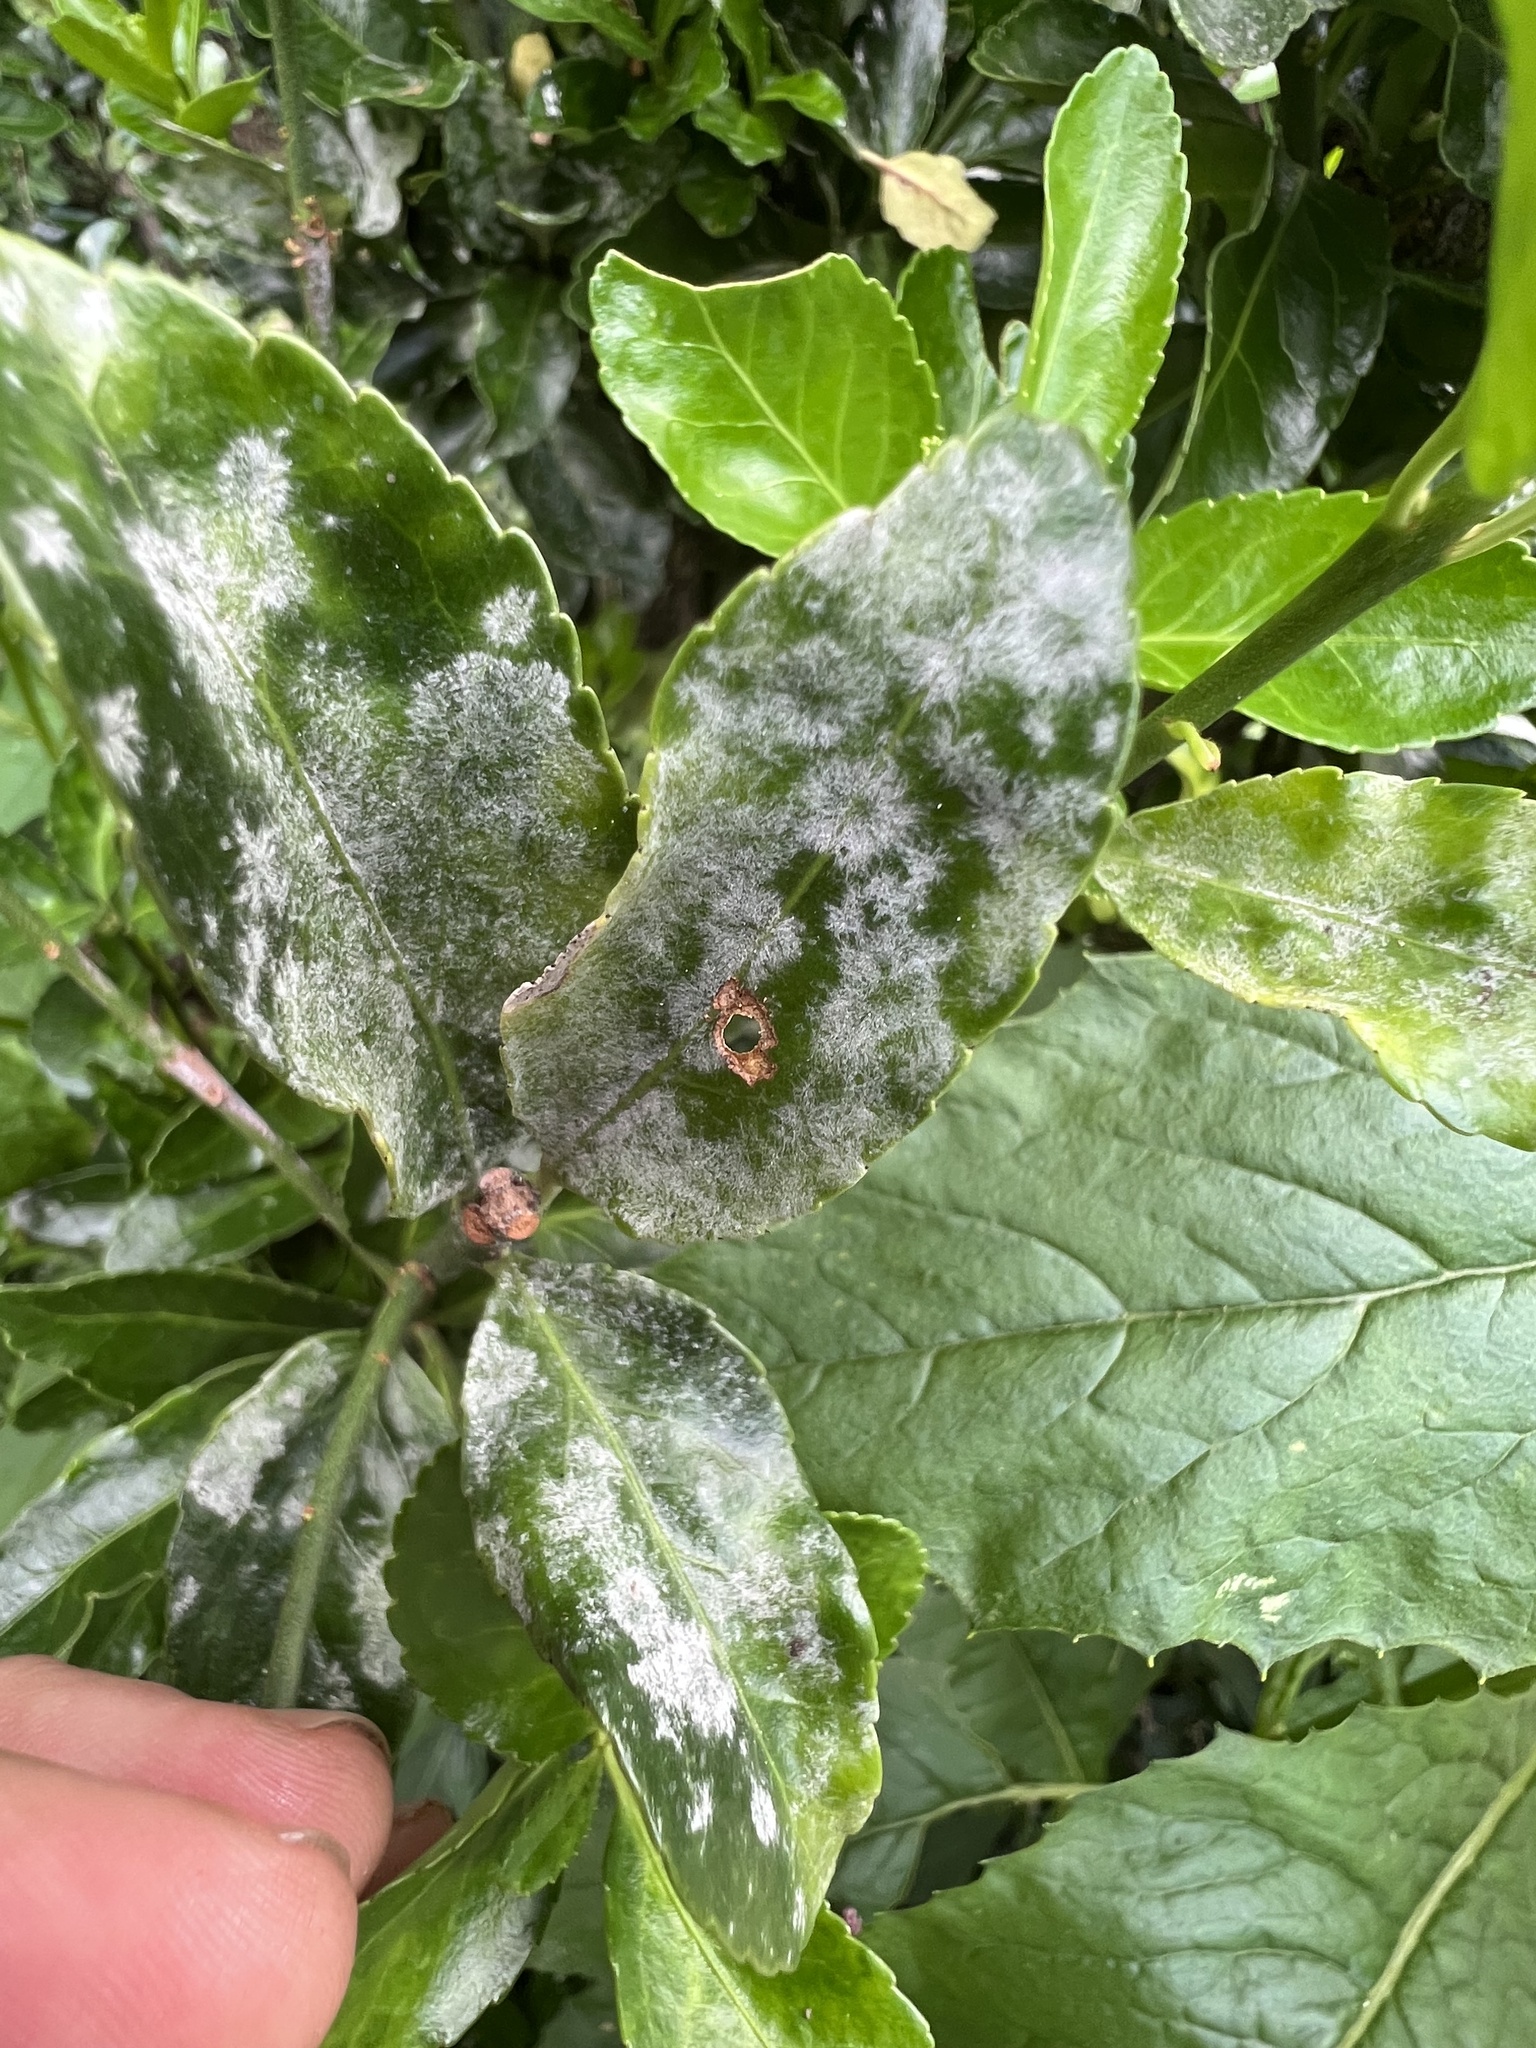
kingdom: Fungi
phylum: Ascomycota
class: Leotiomycetes
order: Helotiales
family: Erysiphaceae
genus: Erysiphe
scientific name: Erysiphe euonymicola
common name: Spindletree mildew
